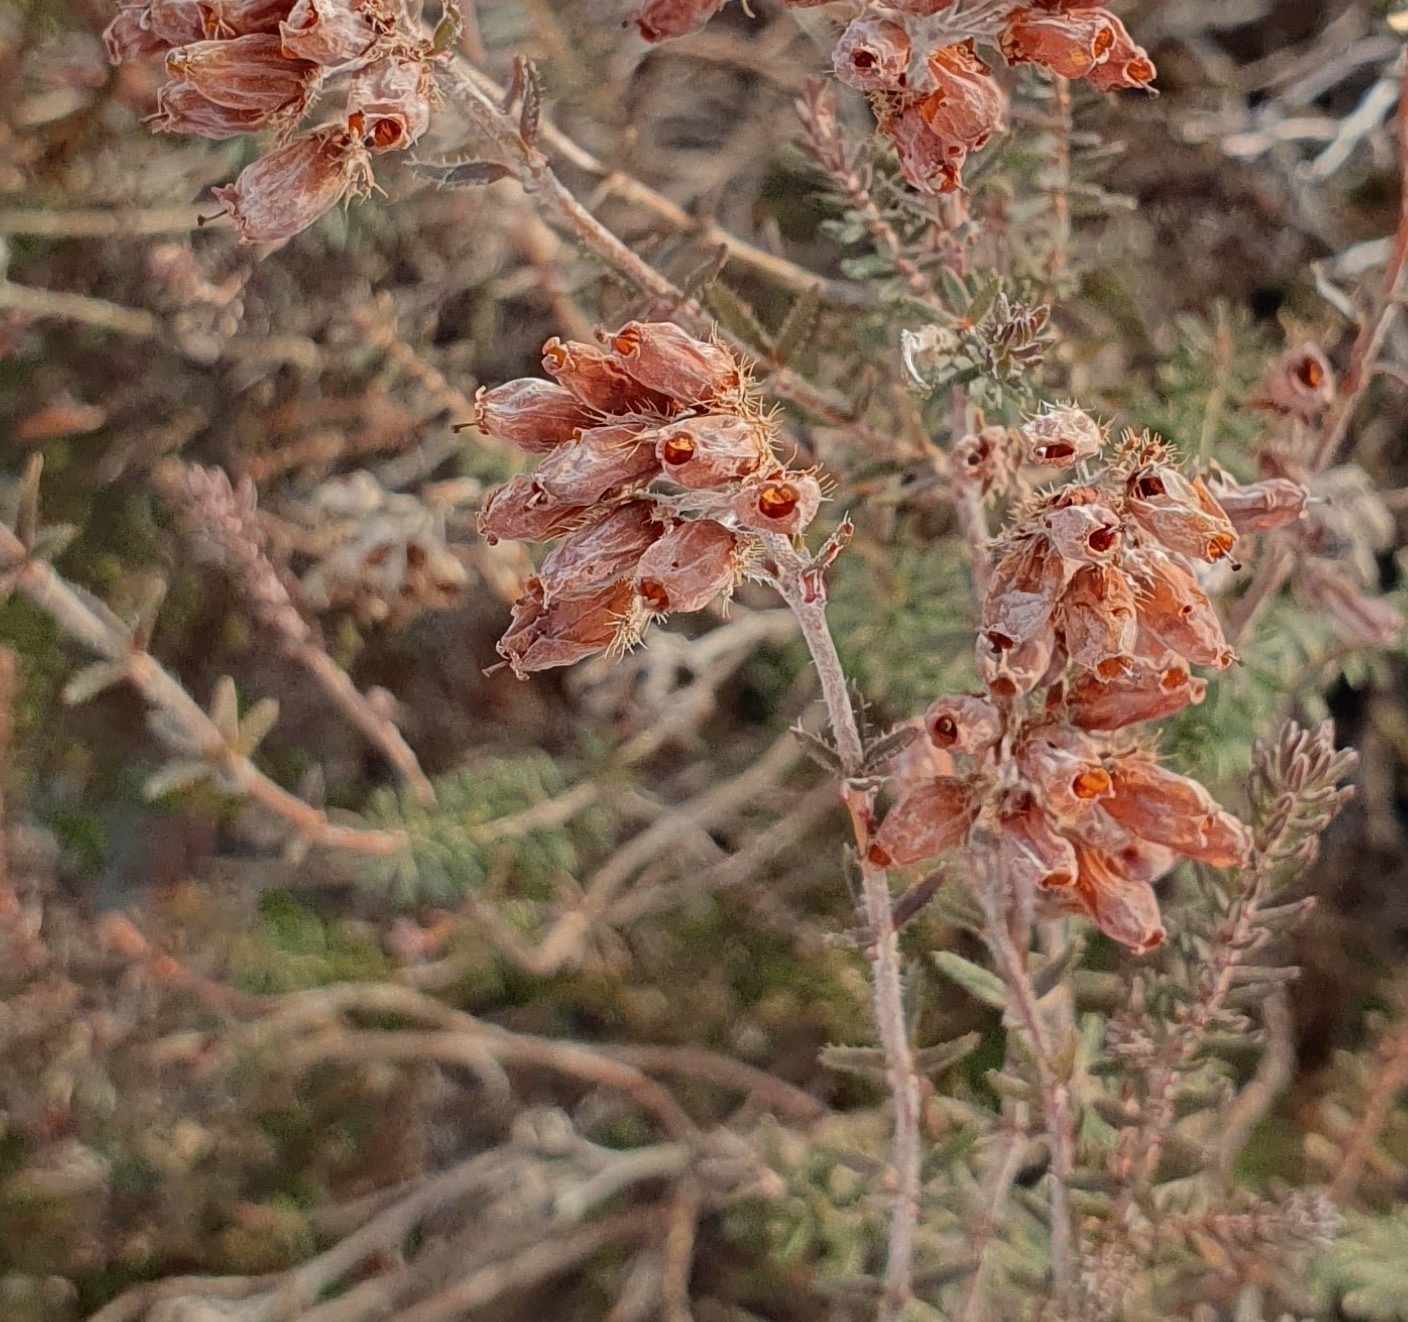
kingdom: Plantae
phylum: Tracheophyta
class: Magnoliopsida
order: Ericales
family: Ericaceae
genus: Erica
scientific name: Erica tetralix
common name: Cross-leaved heath
